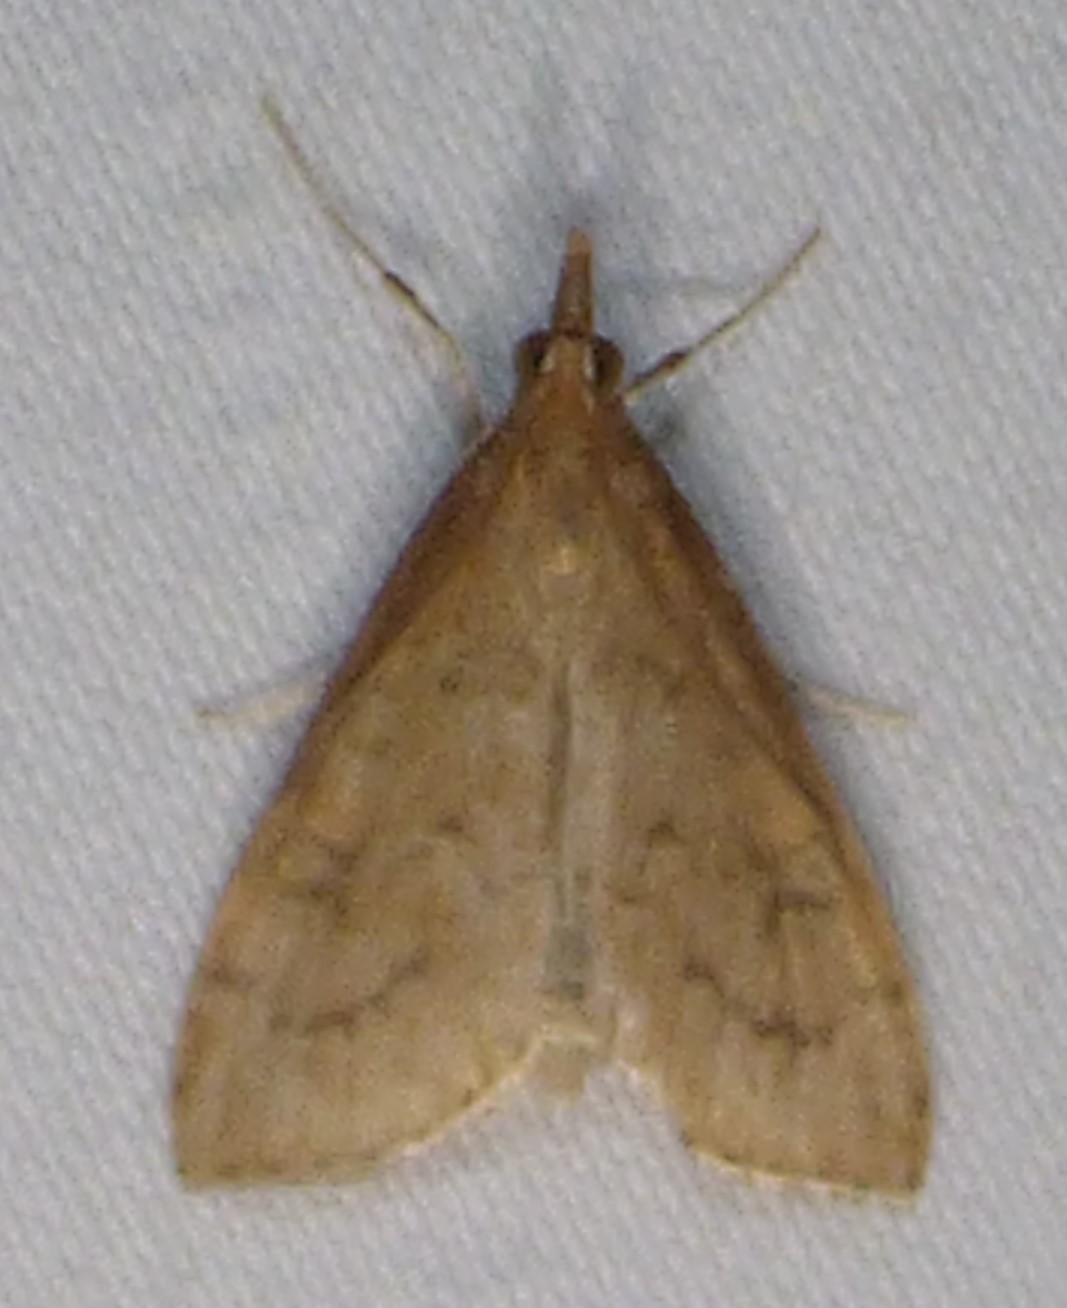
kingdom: Animalia
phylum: Arthropoda
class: Insecta
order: Lepidoptera
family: Crambidae
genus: Udea
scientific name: Udea rubigalis
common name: Celery leaftier moth
